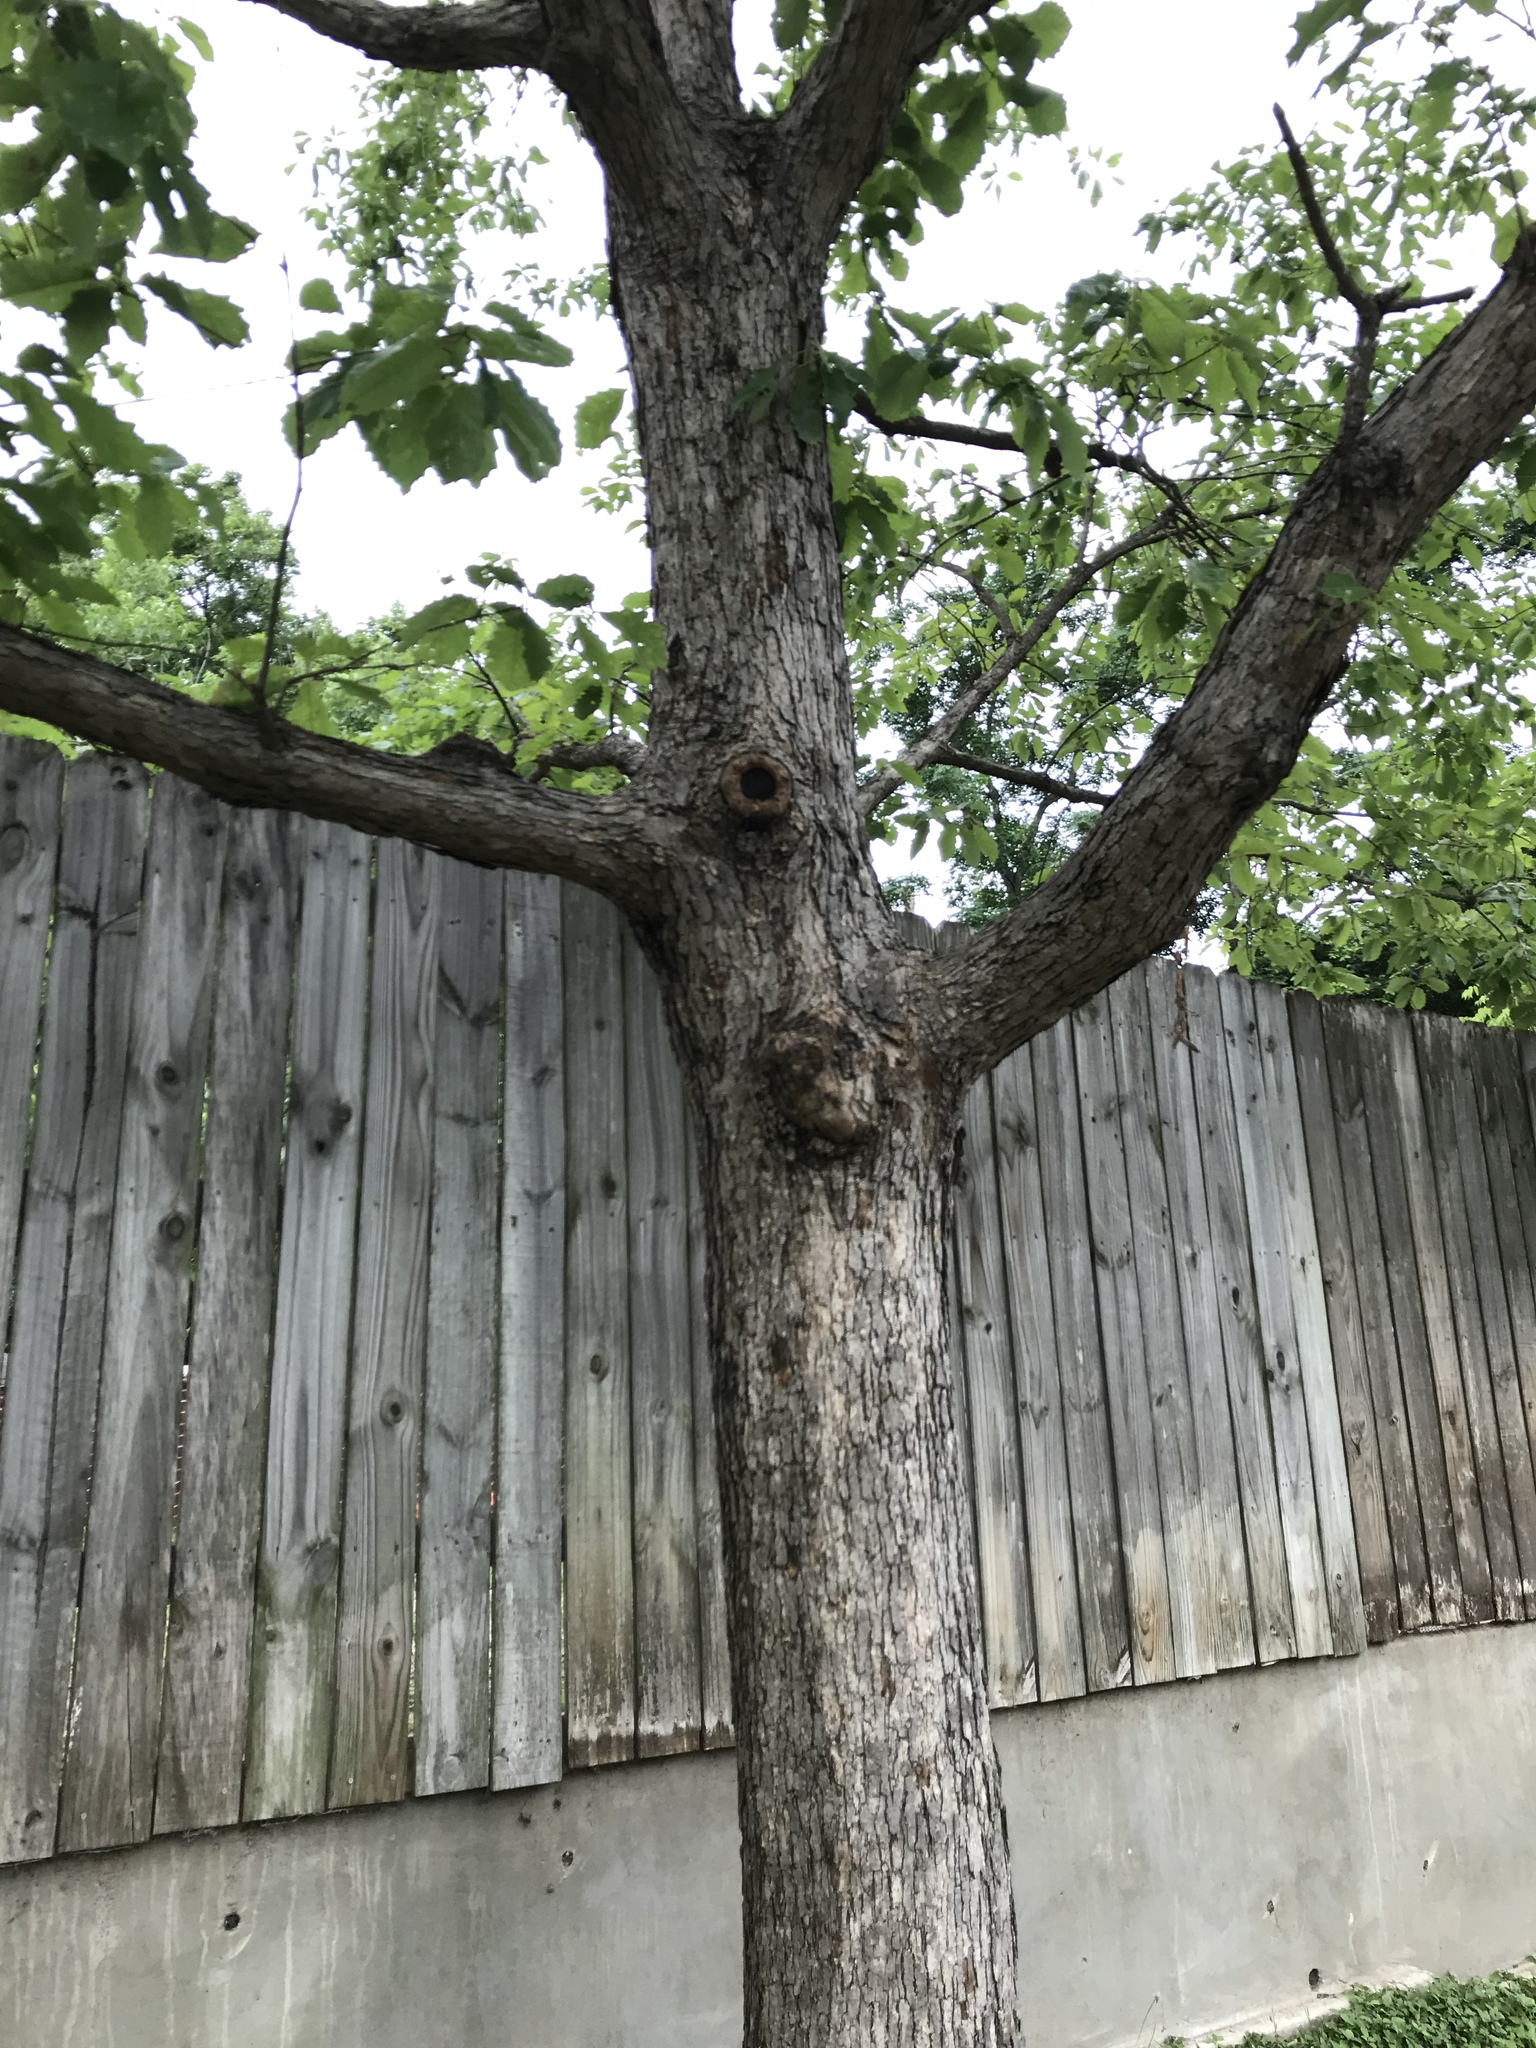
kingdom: Plantae
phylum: Tracheophyta
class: Magnoliopsida
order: Fagales
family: Fagaceae
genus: Quercus
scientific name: Quercus muehlenbergii
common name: Chinkapin oak
